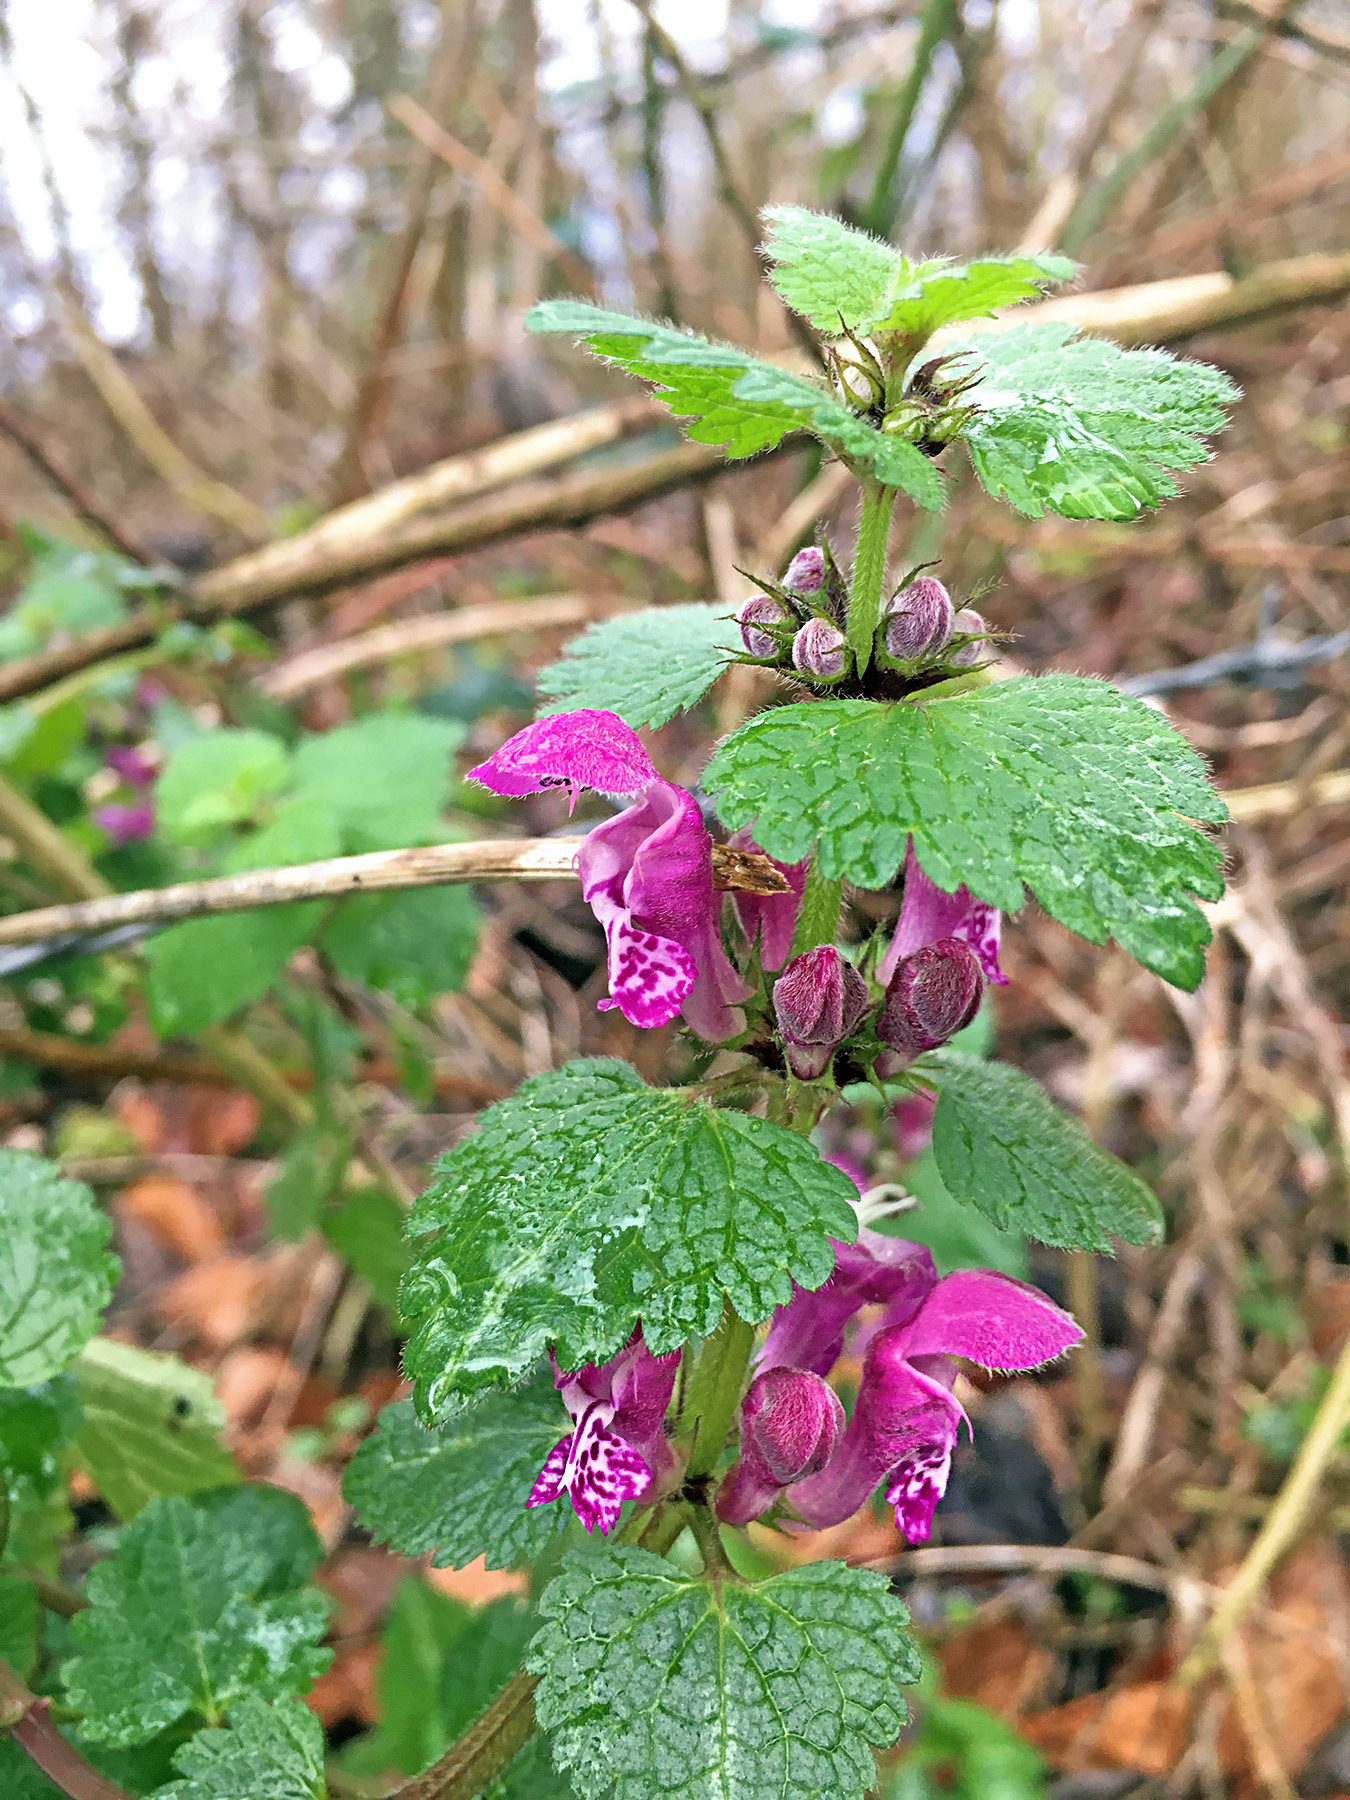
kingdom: Plantae
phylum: Tracheophyta
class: Magnoliopsida
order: Lamiales
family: Lamiaceae
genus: Lamium
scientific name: Lamium maculatum
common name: Spotted dead-nettle
